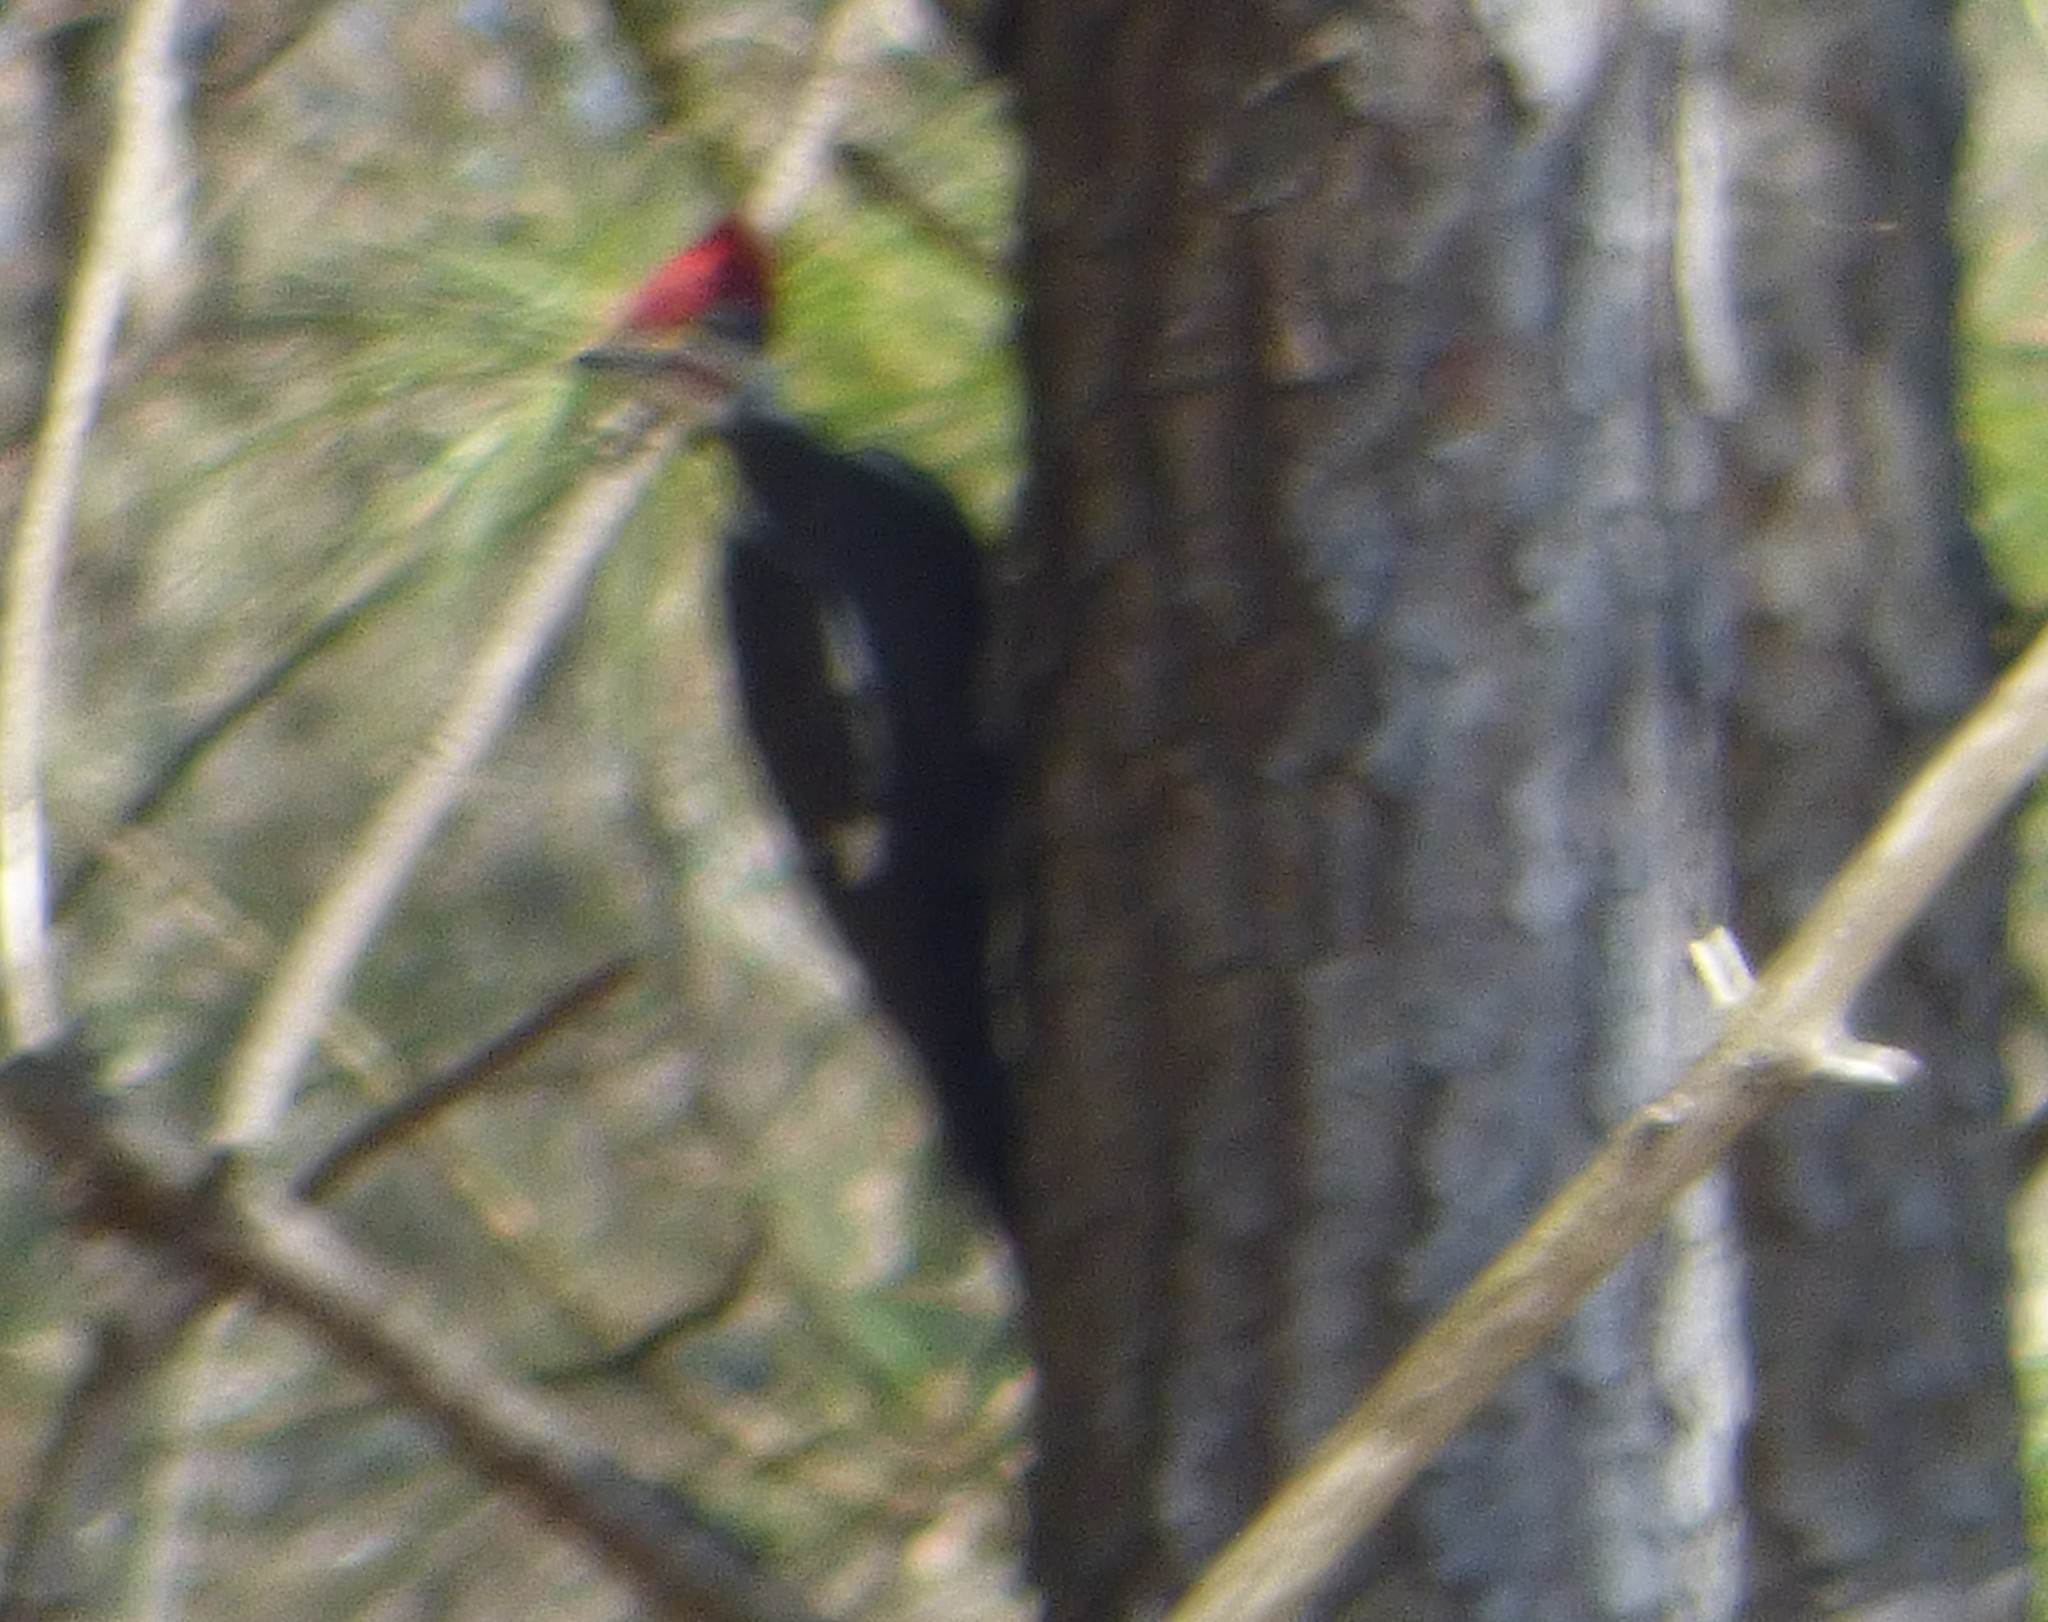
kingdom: Animalia
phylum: Chordata
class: Aves
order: Piciformes
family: Picidae
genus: Dryocopus
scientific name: Dryocopus pileatus
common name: Pileated woodpecker
